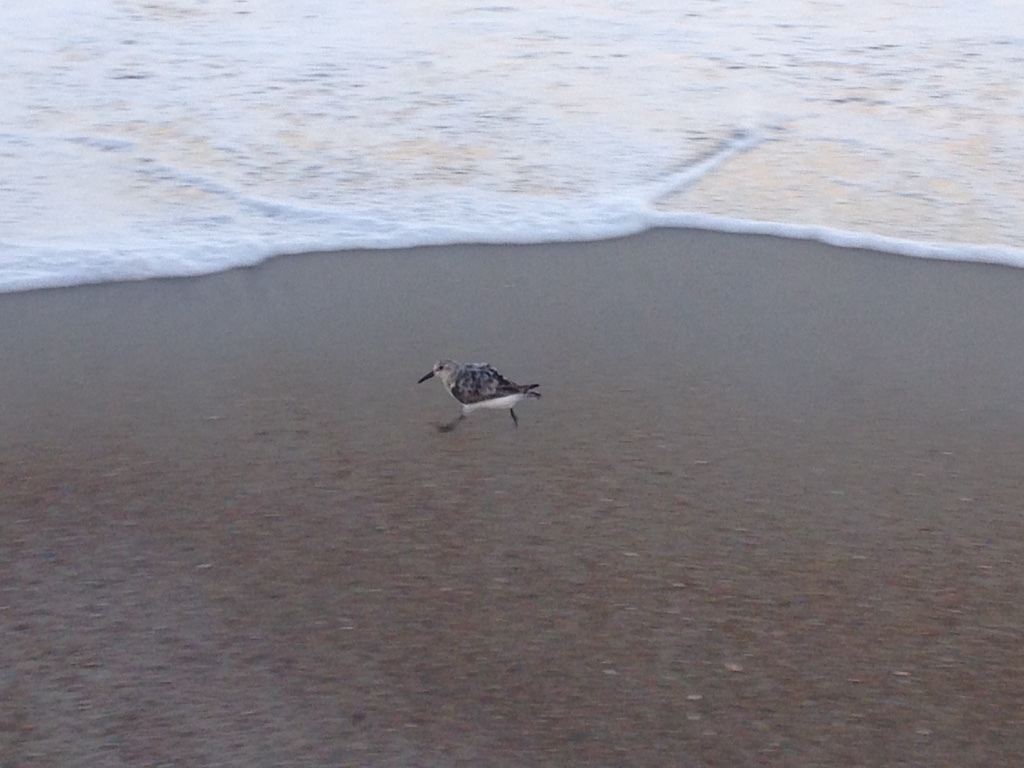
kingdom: Animalia
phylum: Chordata
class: Aves
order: Charadriiformes
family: Scolopacidae
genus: Calidris
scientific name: Calidris alba
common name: Sanderling
